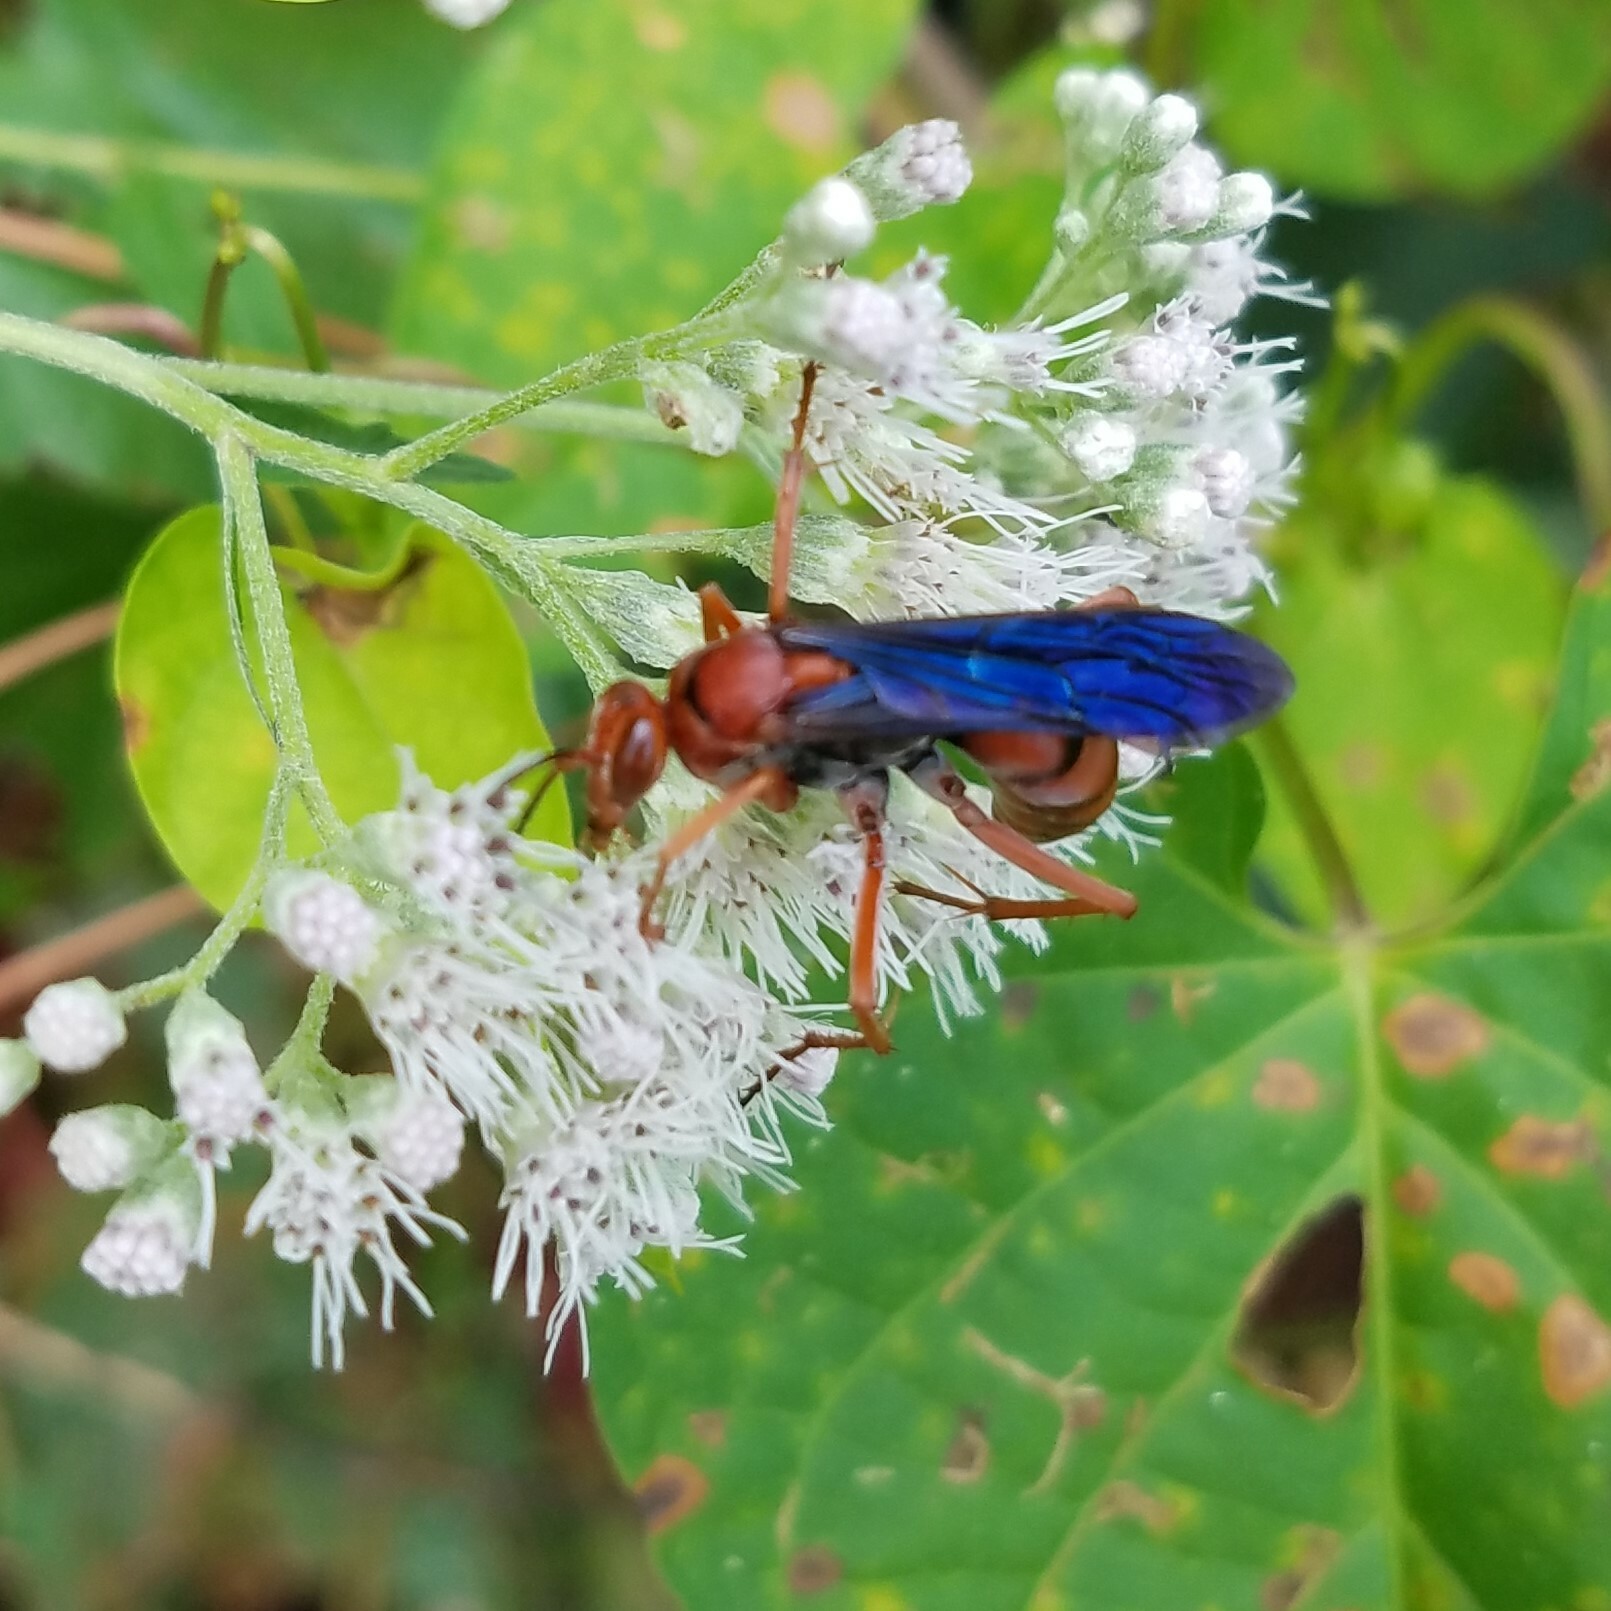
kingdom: Animalia
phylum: Arthropoda
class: Insecta
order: Hymenoptera
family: Pompilidae
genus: Tachypompilus
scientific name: Tachypompilus ferrugineus
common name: Rusty spider wasp
